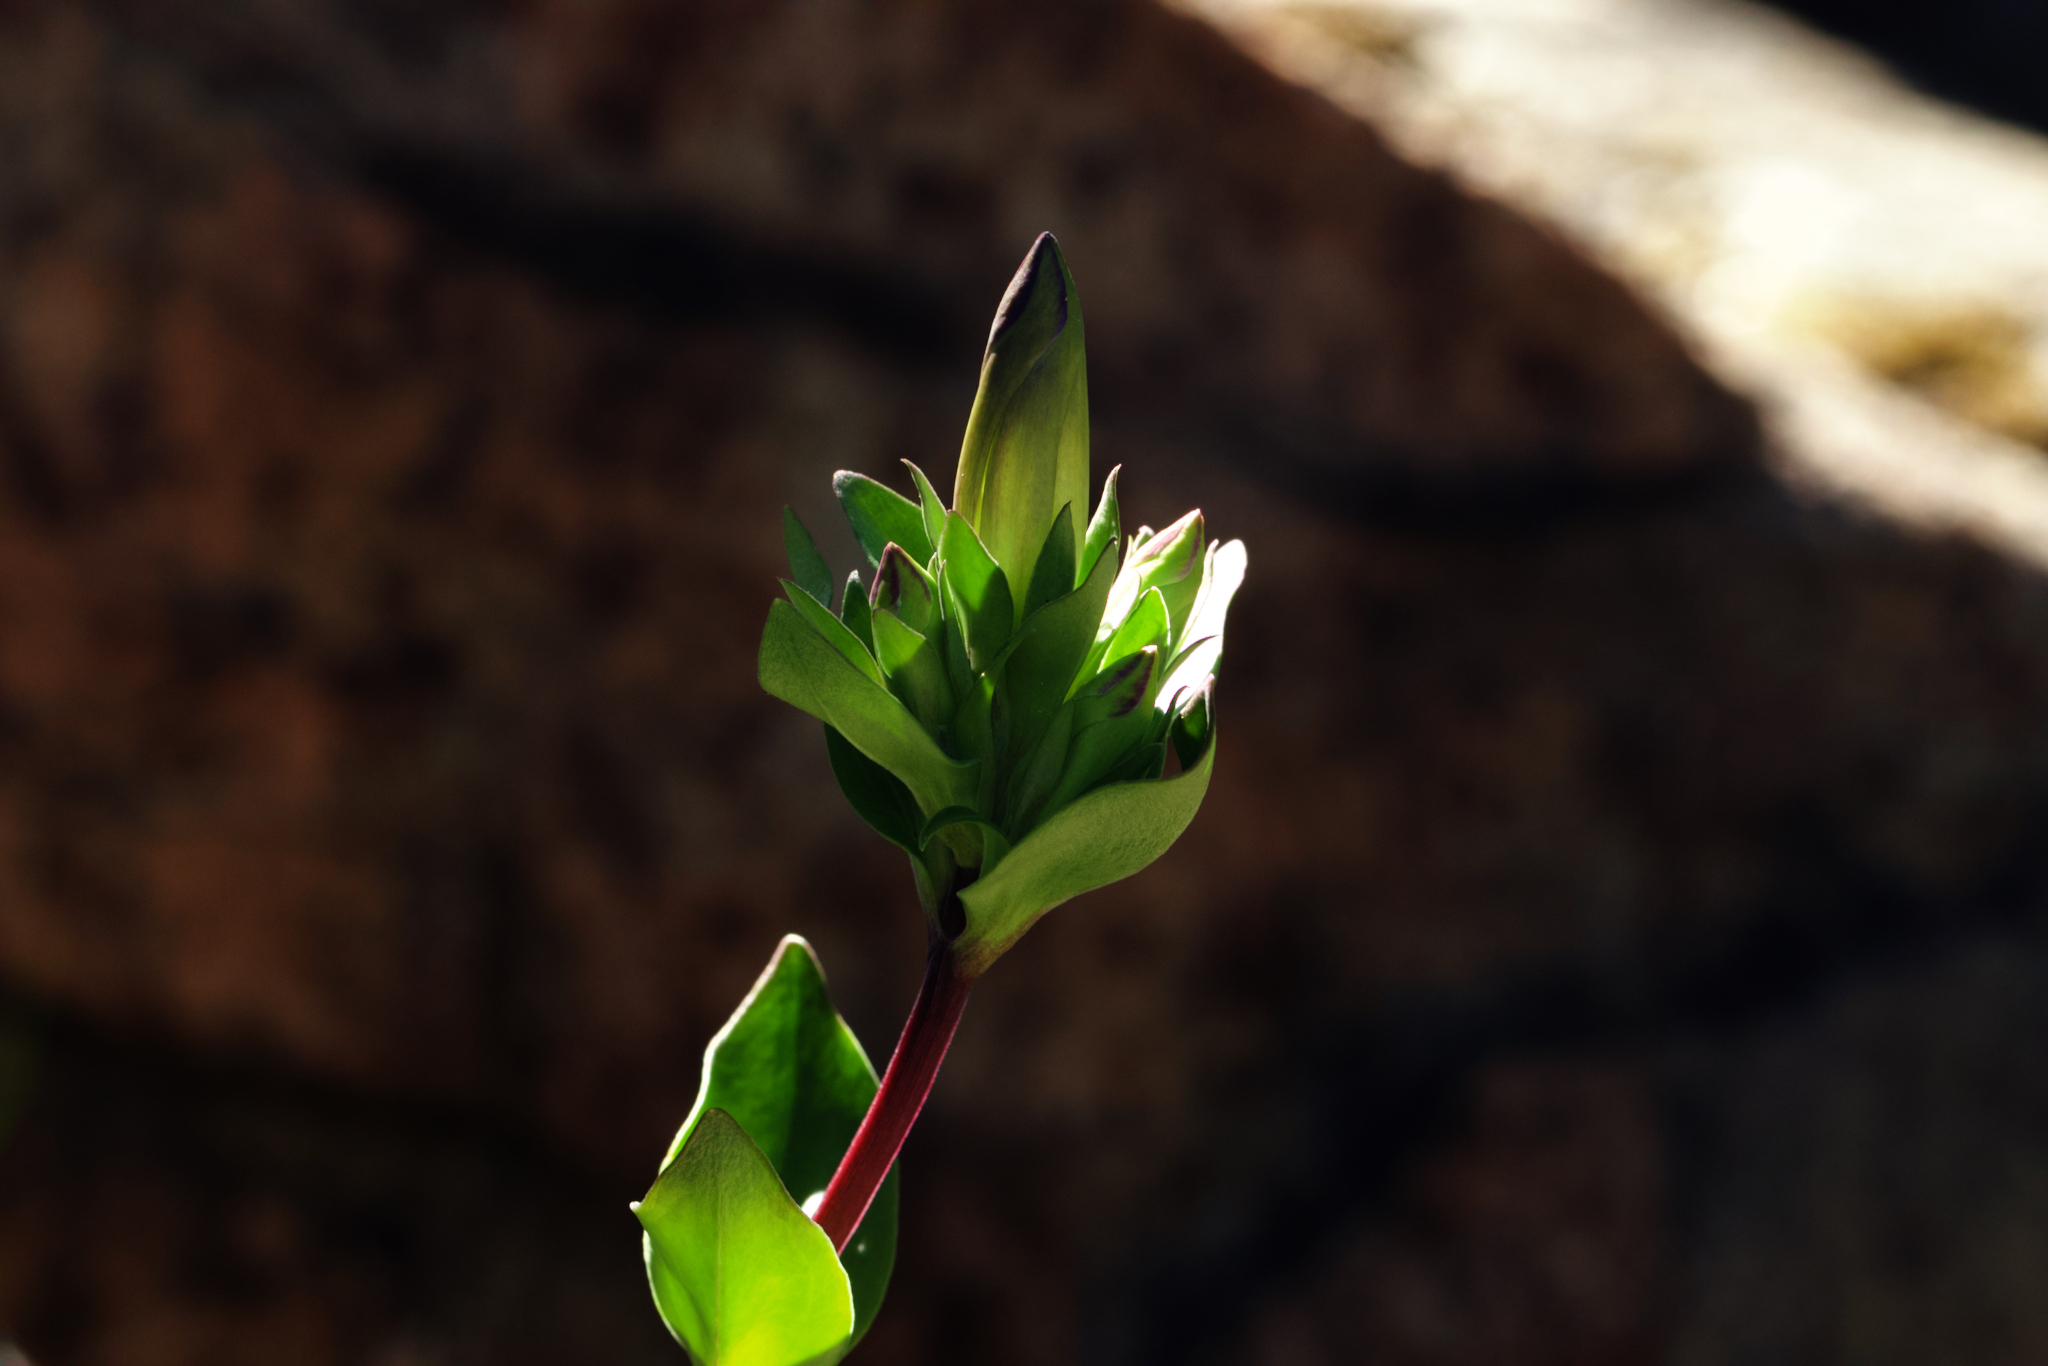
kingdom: Plantae
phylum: Tracheophyta
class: Magnoliopsida
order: Gentianales
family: Gentianaceae
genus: Gentiana
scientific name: Gentiana affinis
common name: Rocky mountain gentian
